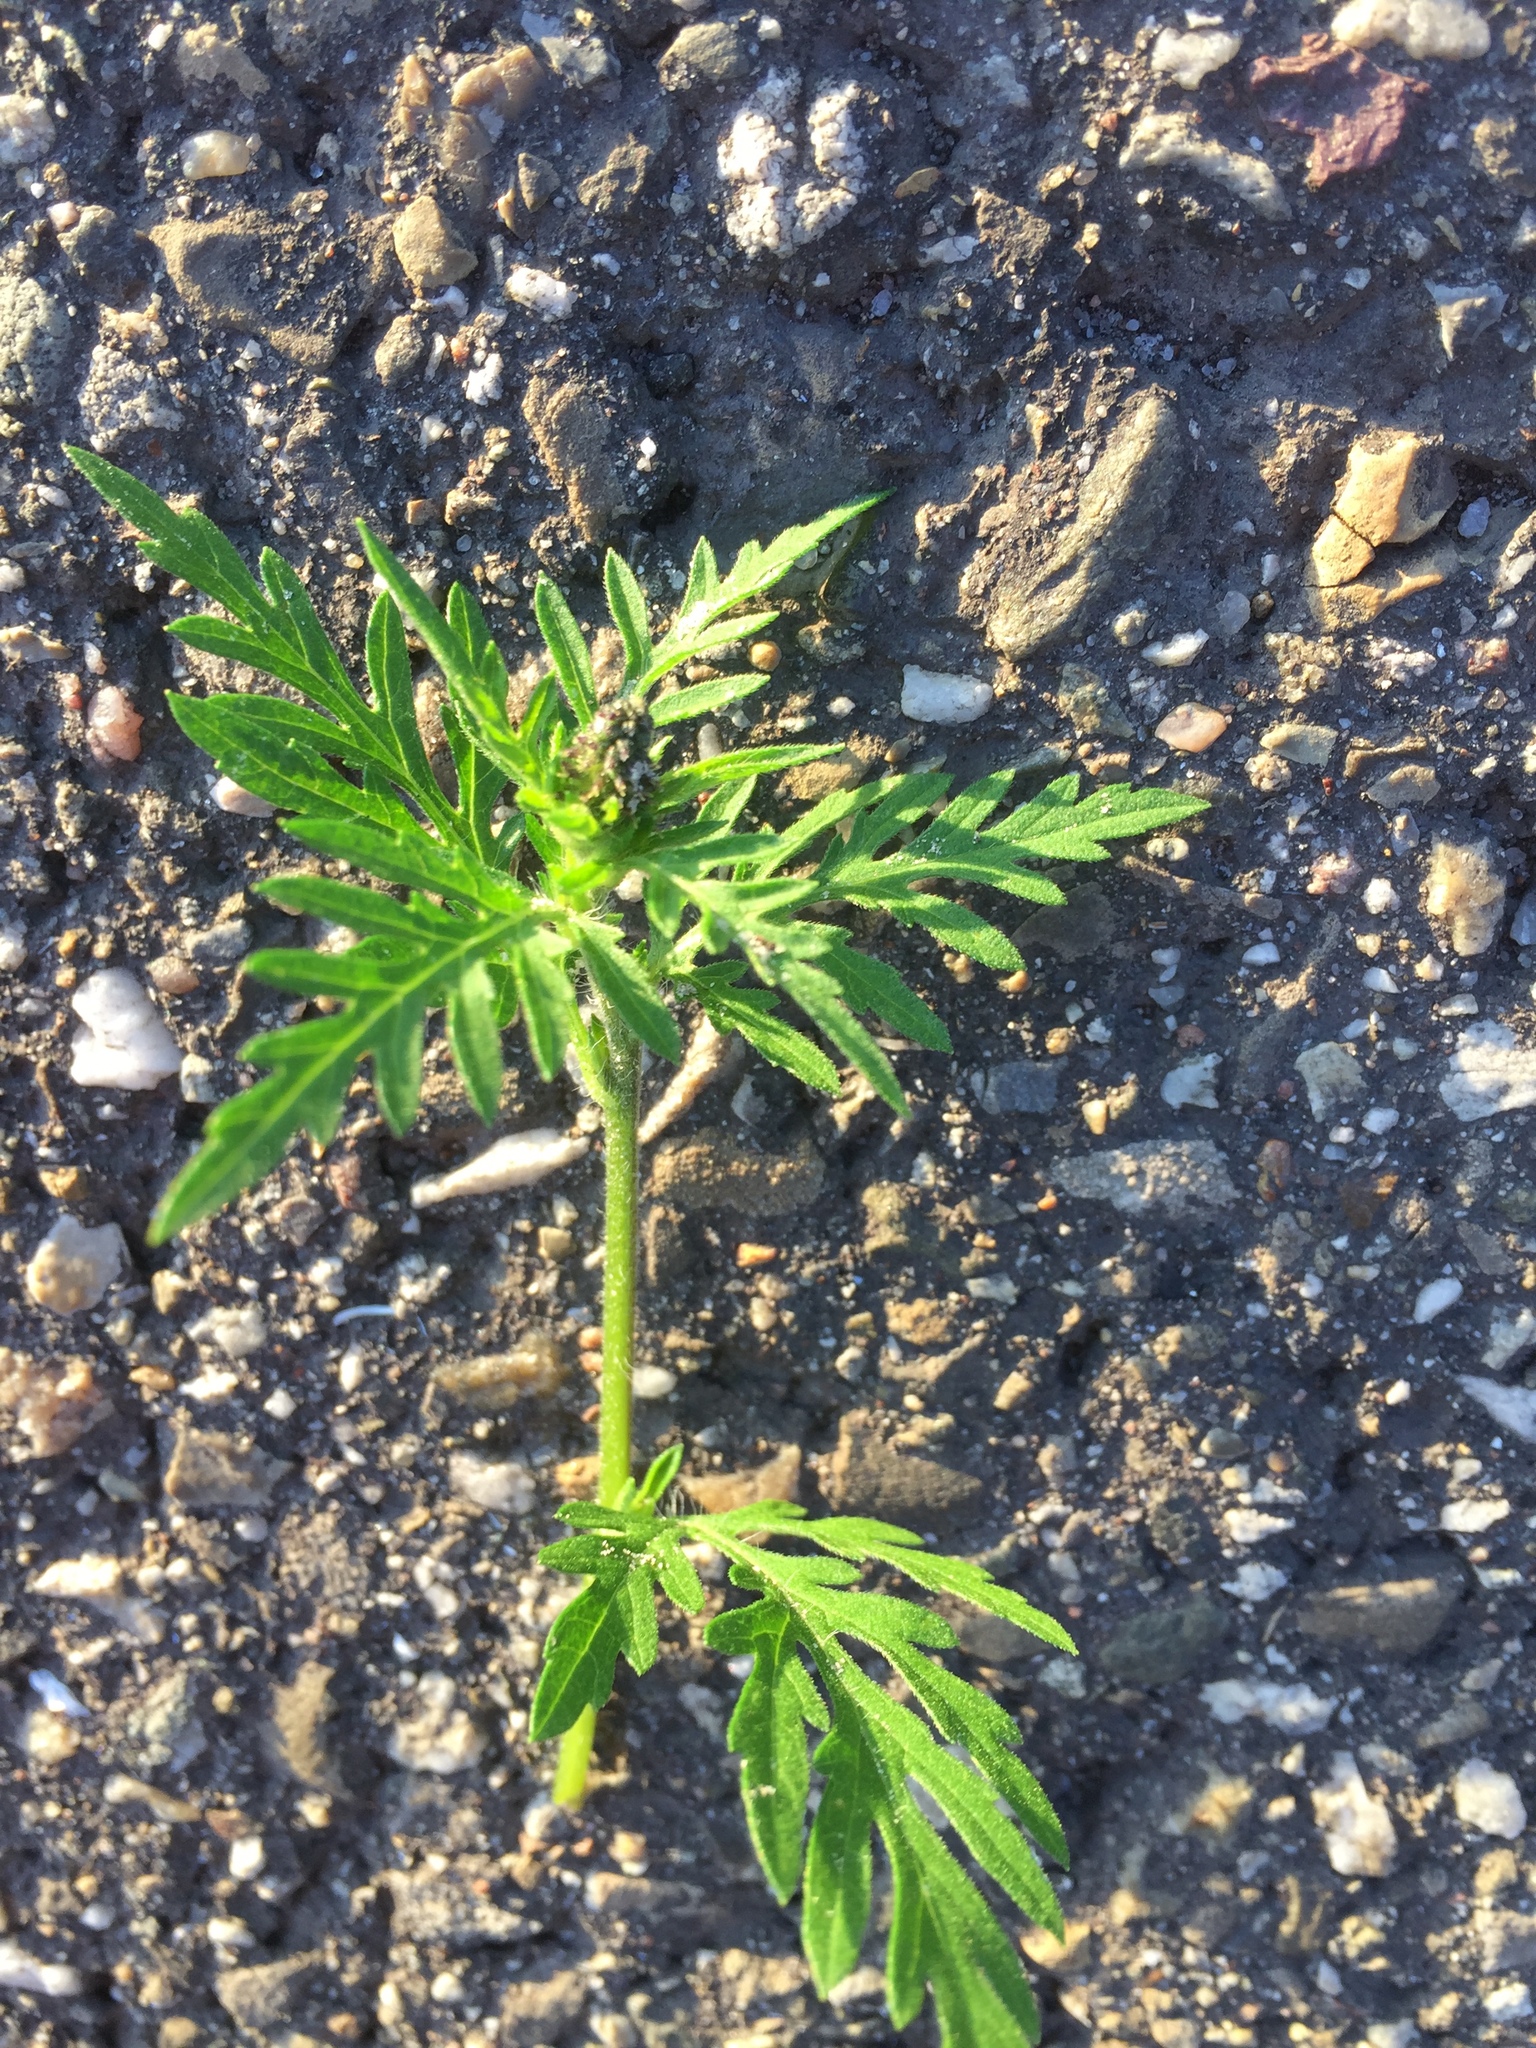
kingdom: Plantae
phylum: Tracheophyta
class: Magnoliopsida
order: Asterales
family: Asteraceae
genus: Ambrosia
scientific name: Ambrosia artemisiifolia
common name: Annual ragweed
